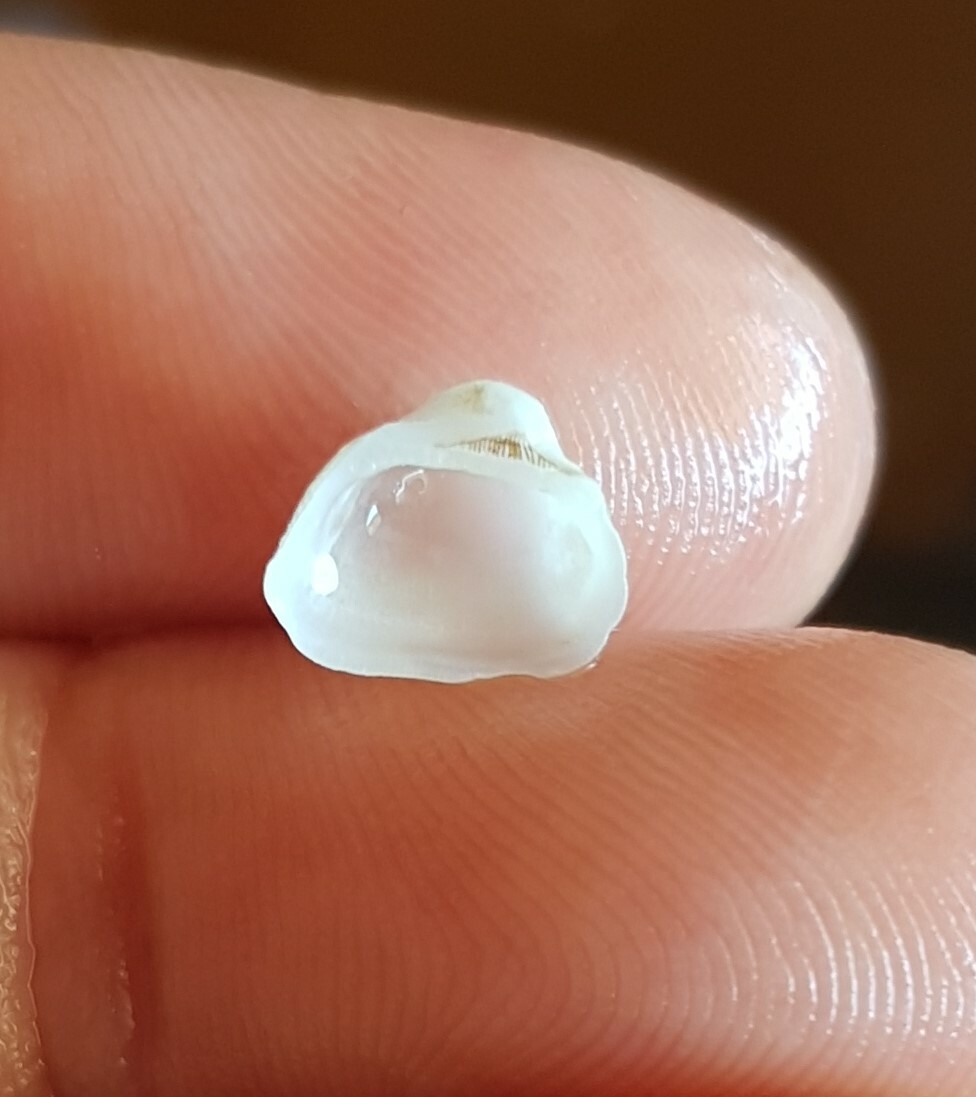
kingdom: Animalia
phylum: Mollusca
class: Bivalvia
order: Arcida
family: Noetiidae
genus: Striarca
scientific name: Striarca lactea
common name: Milky-white ark
